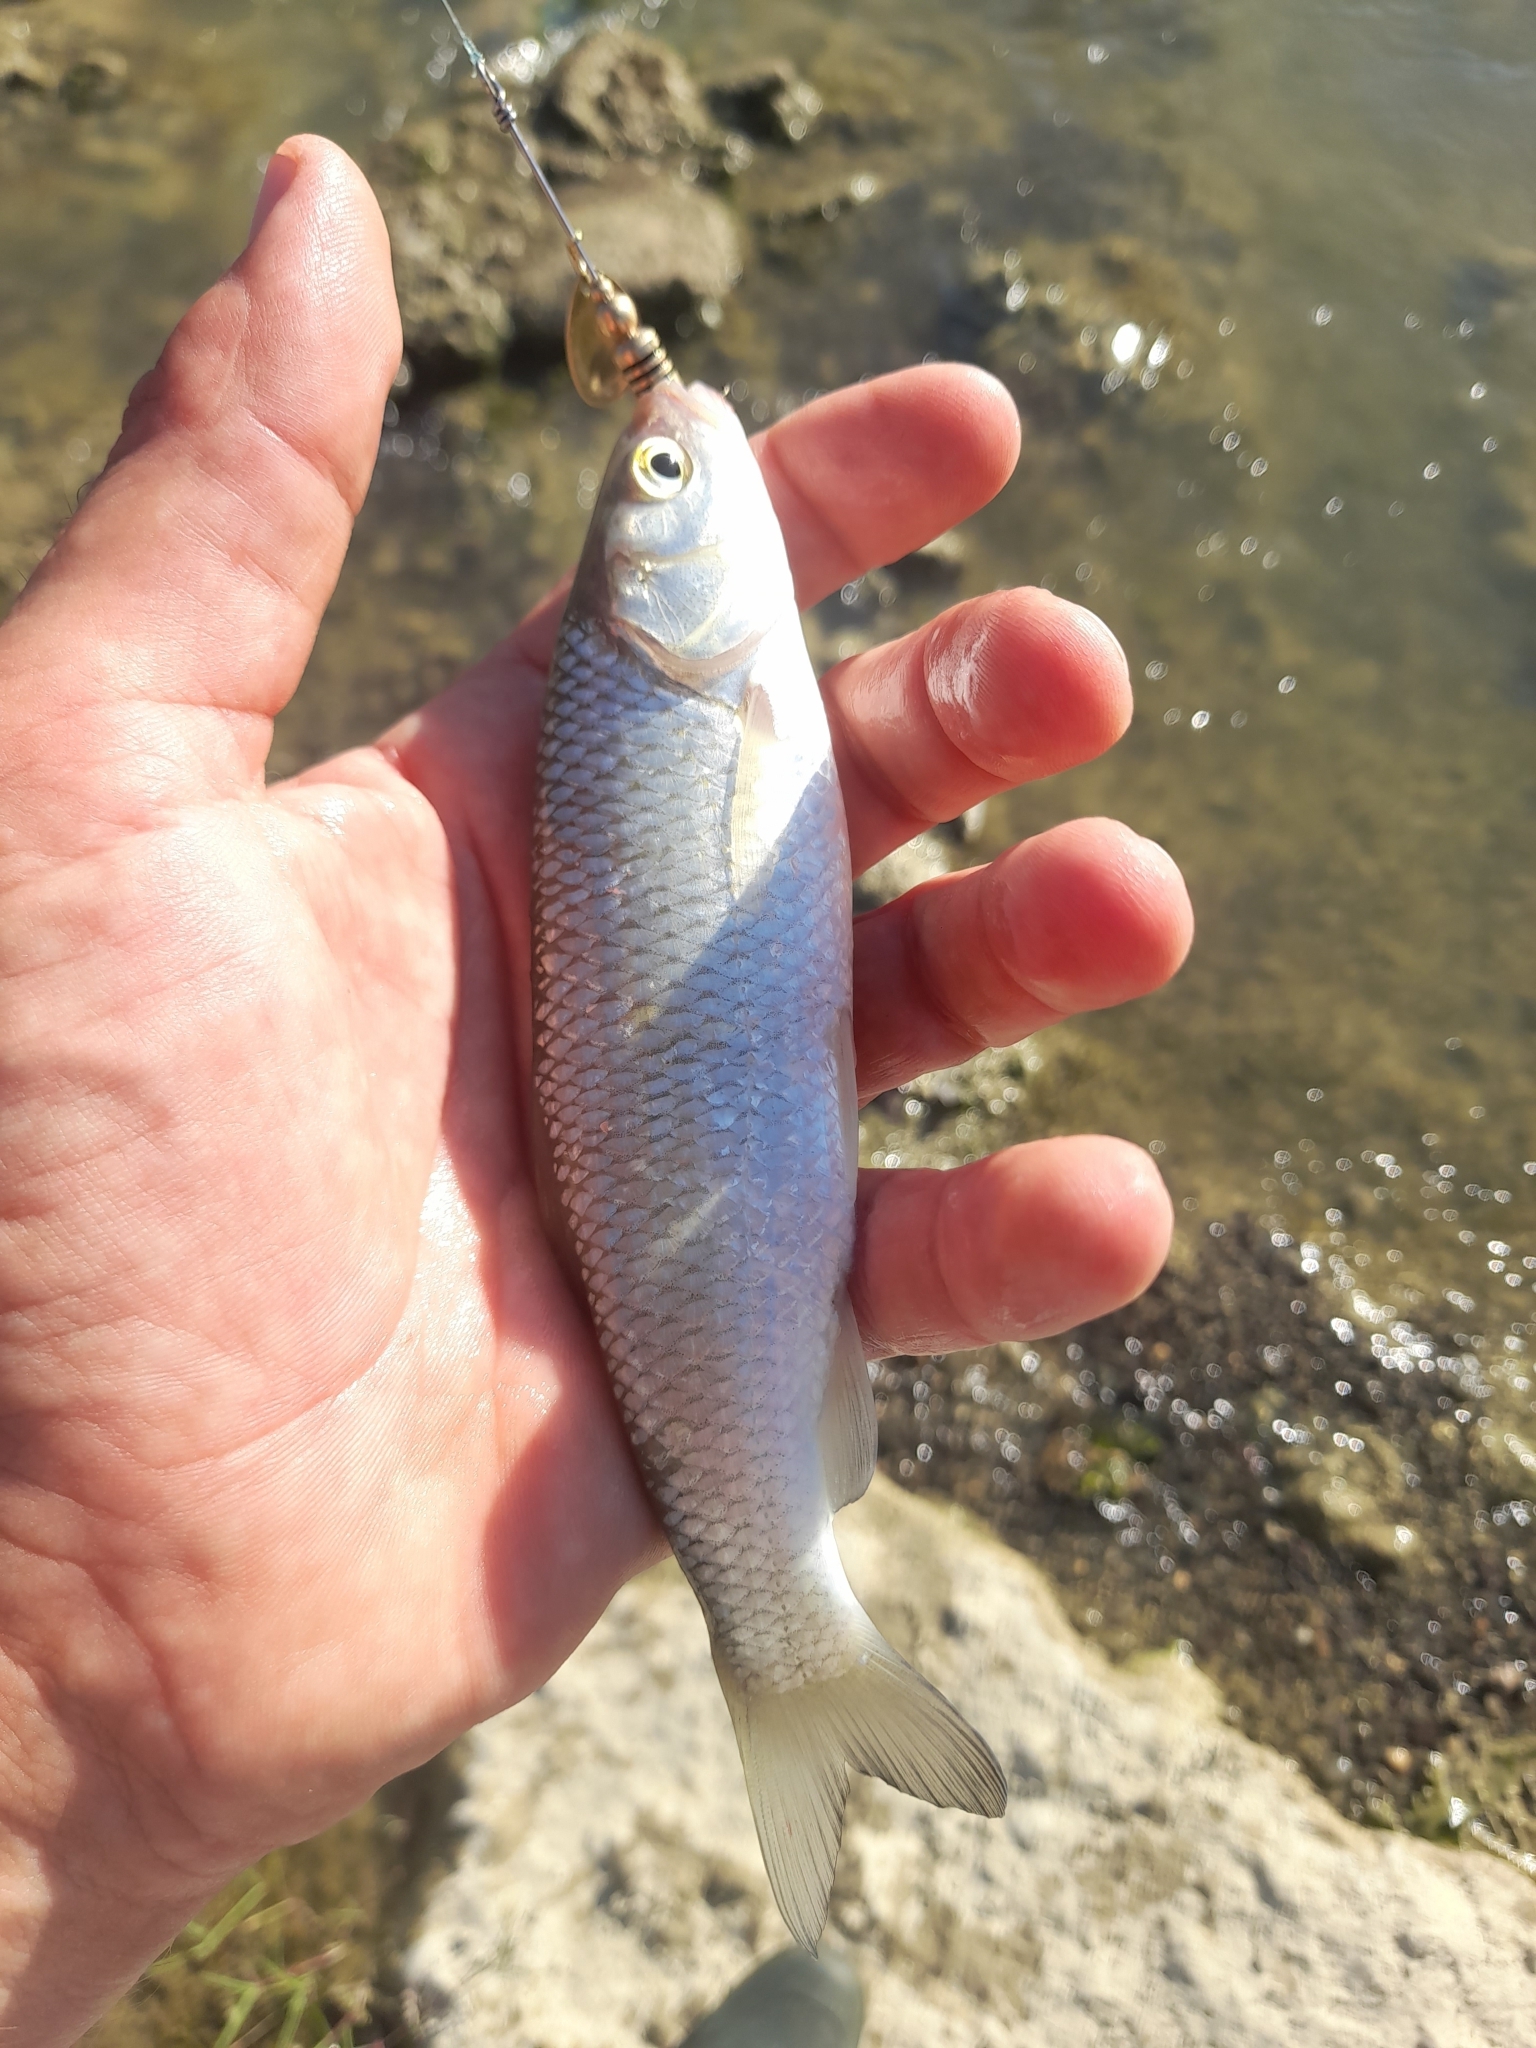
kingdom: Animalia
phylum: Chordata
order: Cypriniformes
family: Cyprinidae
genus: Squalius
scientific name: Squalius squalus
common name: Italian chub
